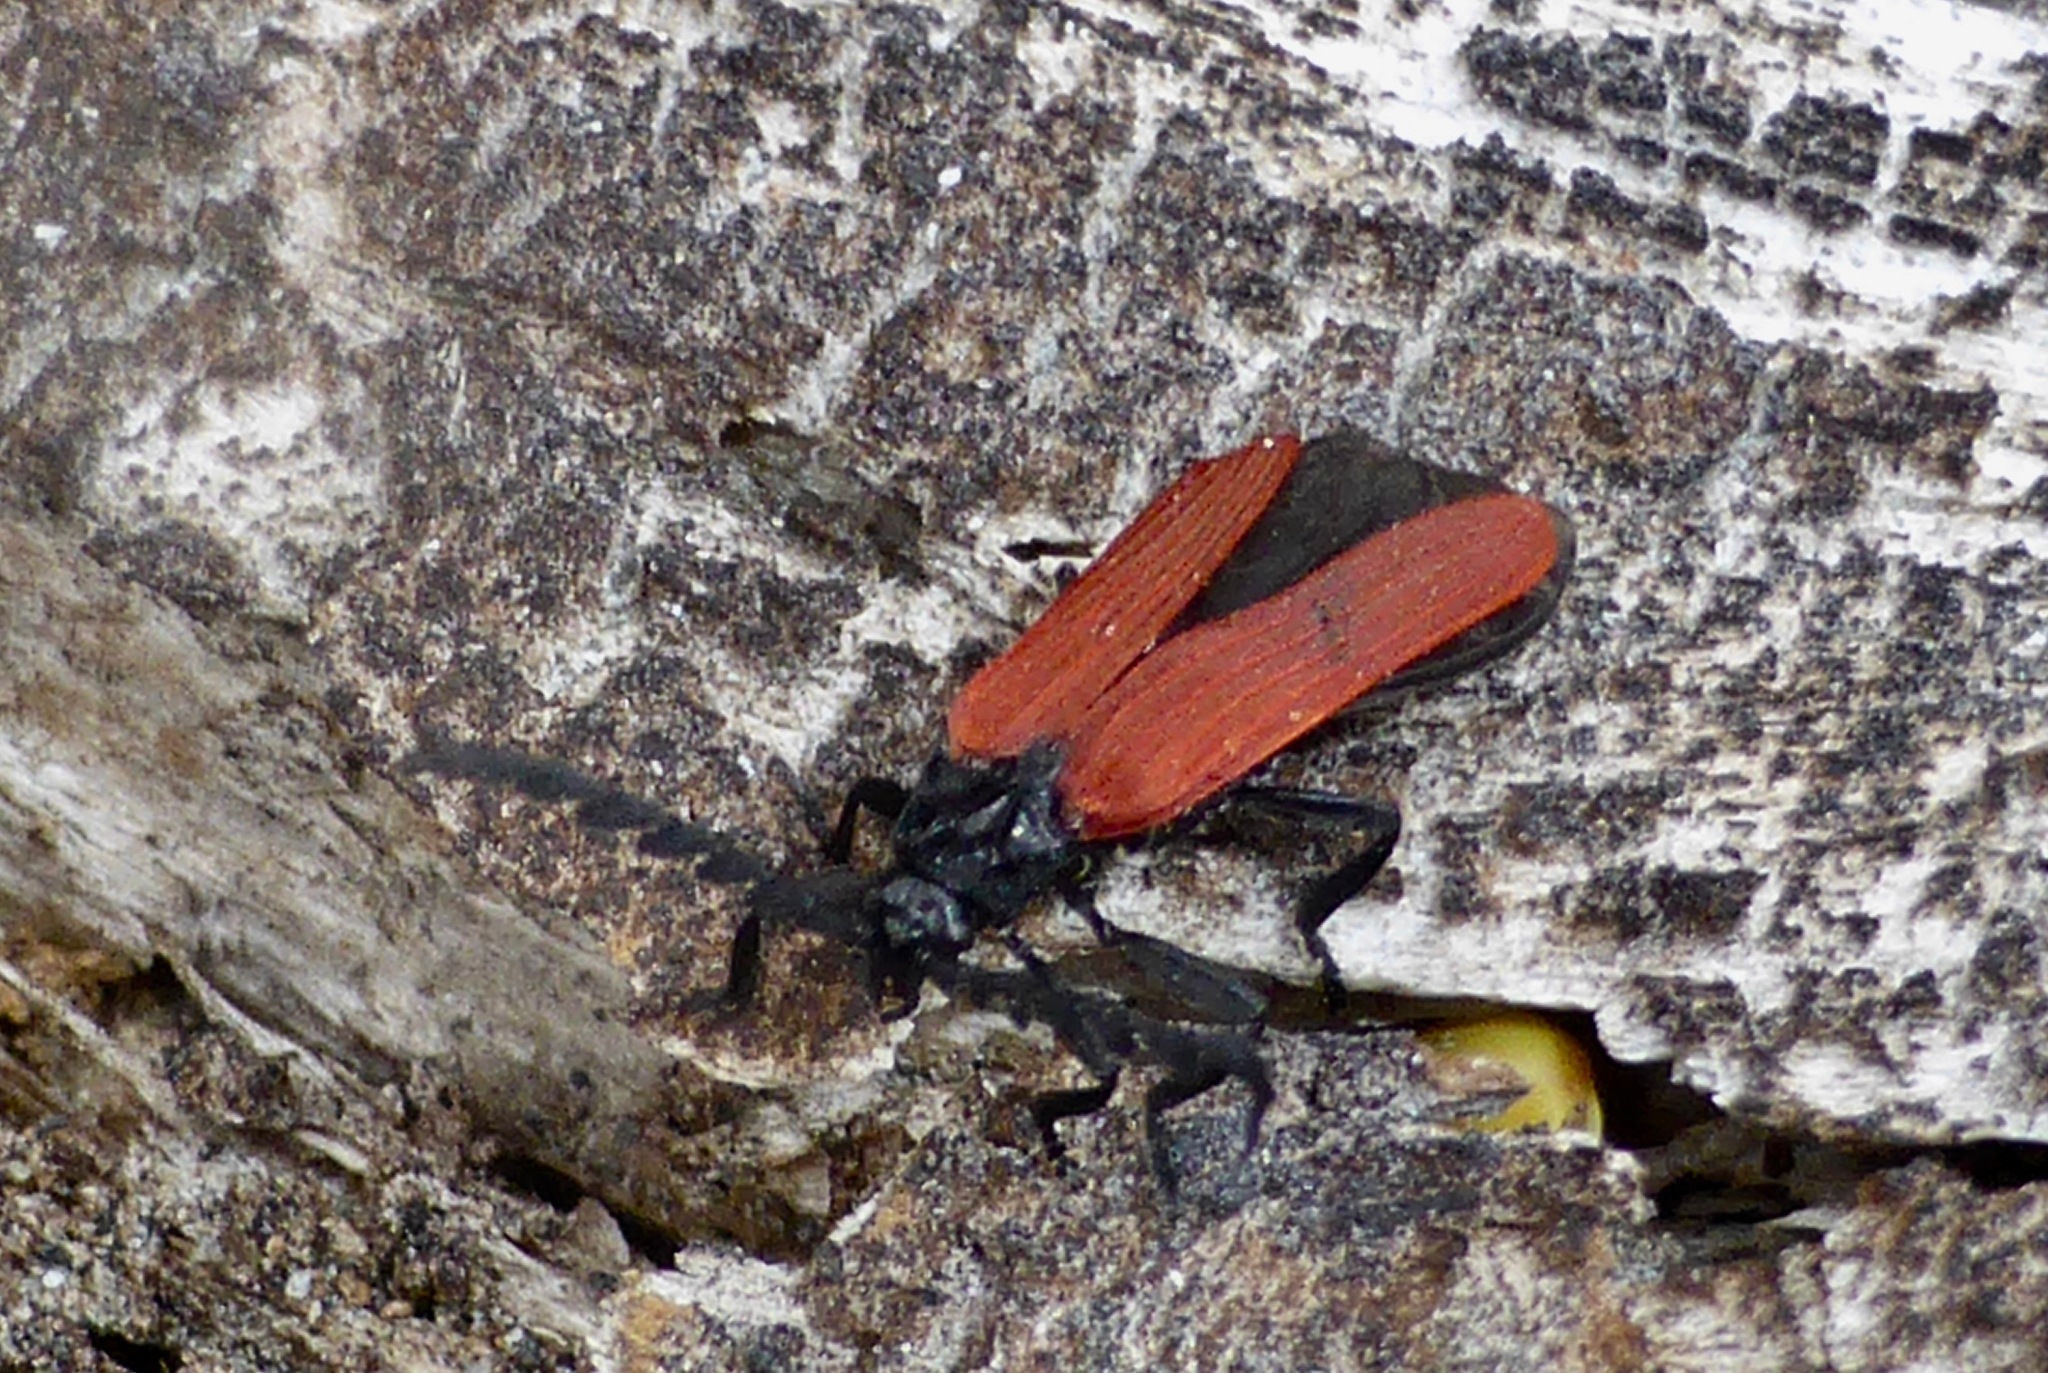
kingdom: Animalia
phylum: Arthropoda
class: Insecta
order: Coleoptera
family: Lycidae
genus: Porrostoma
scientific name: Porrostoma rufipenne
